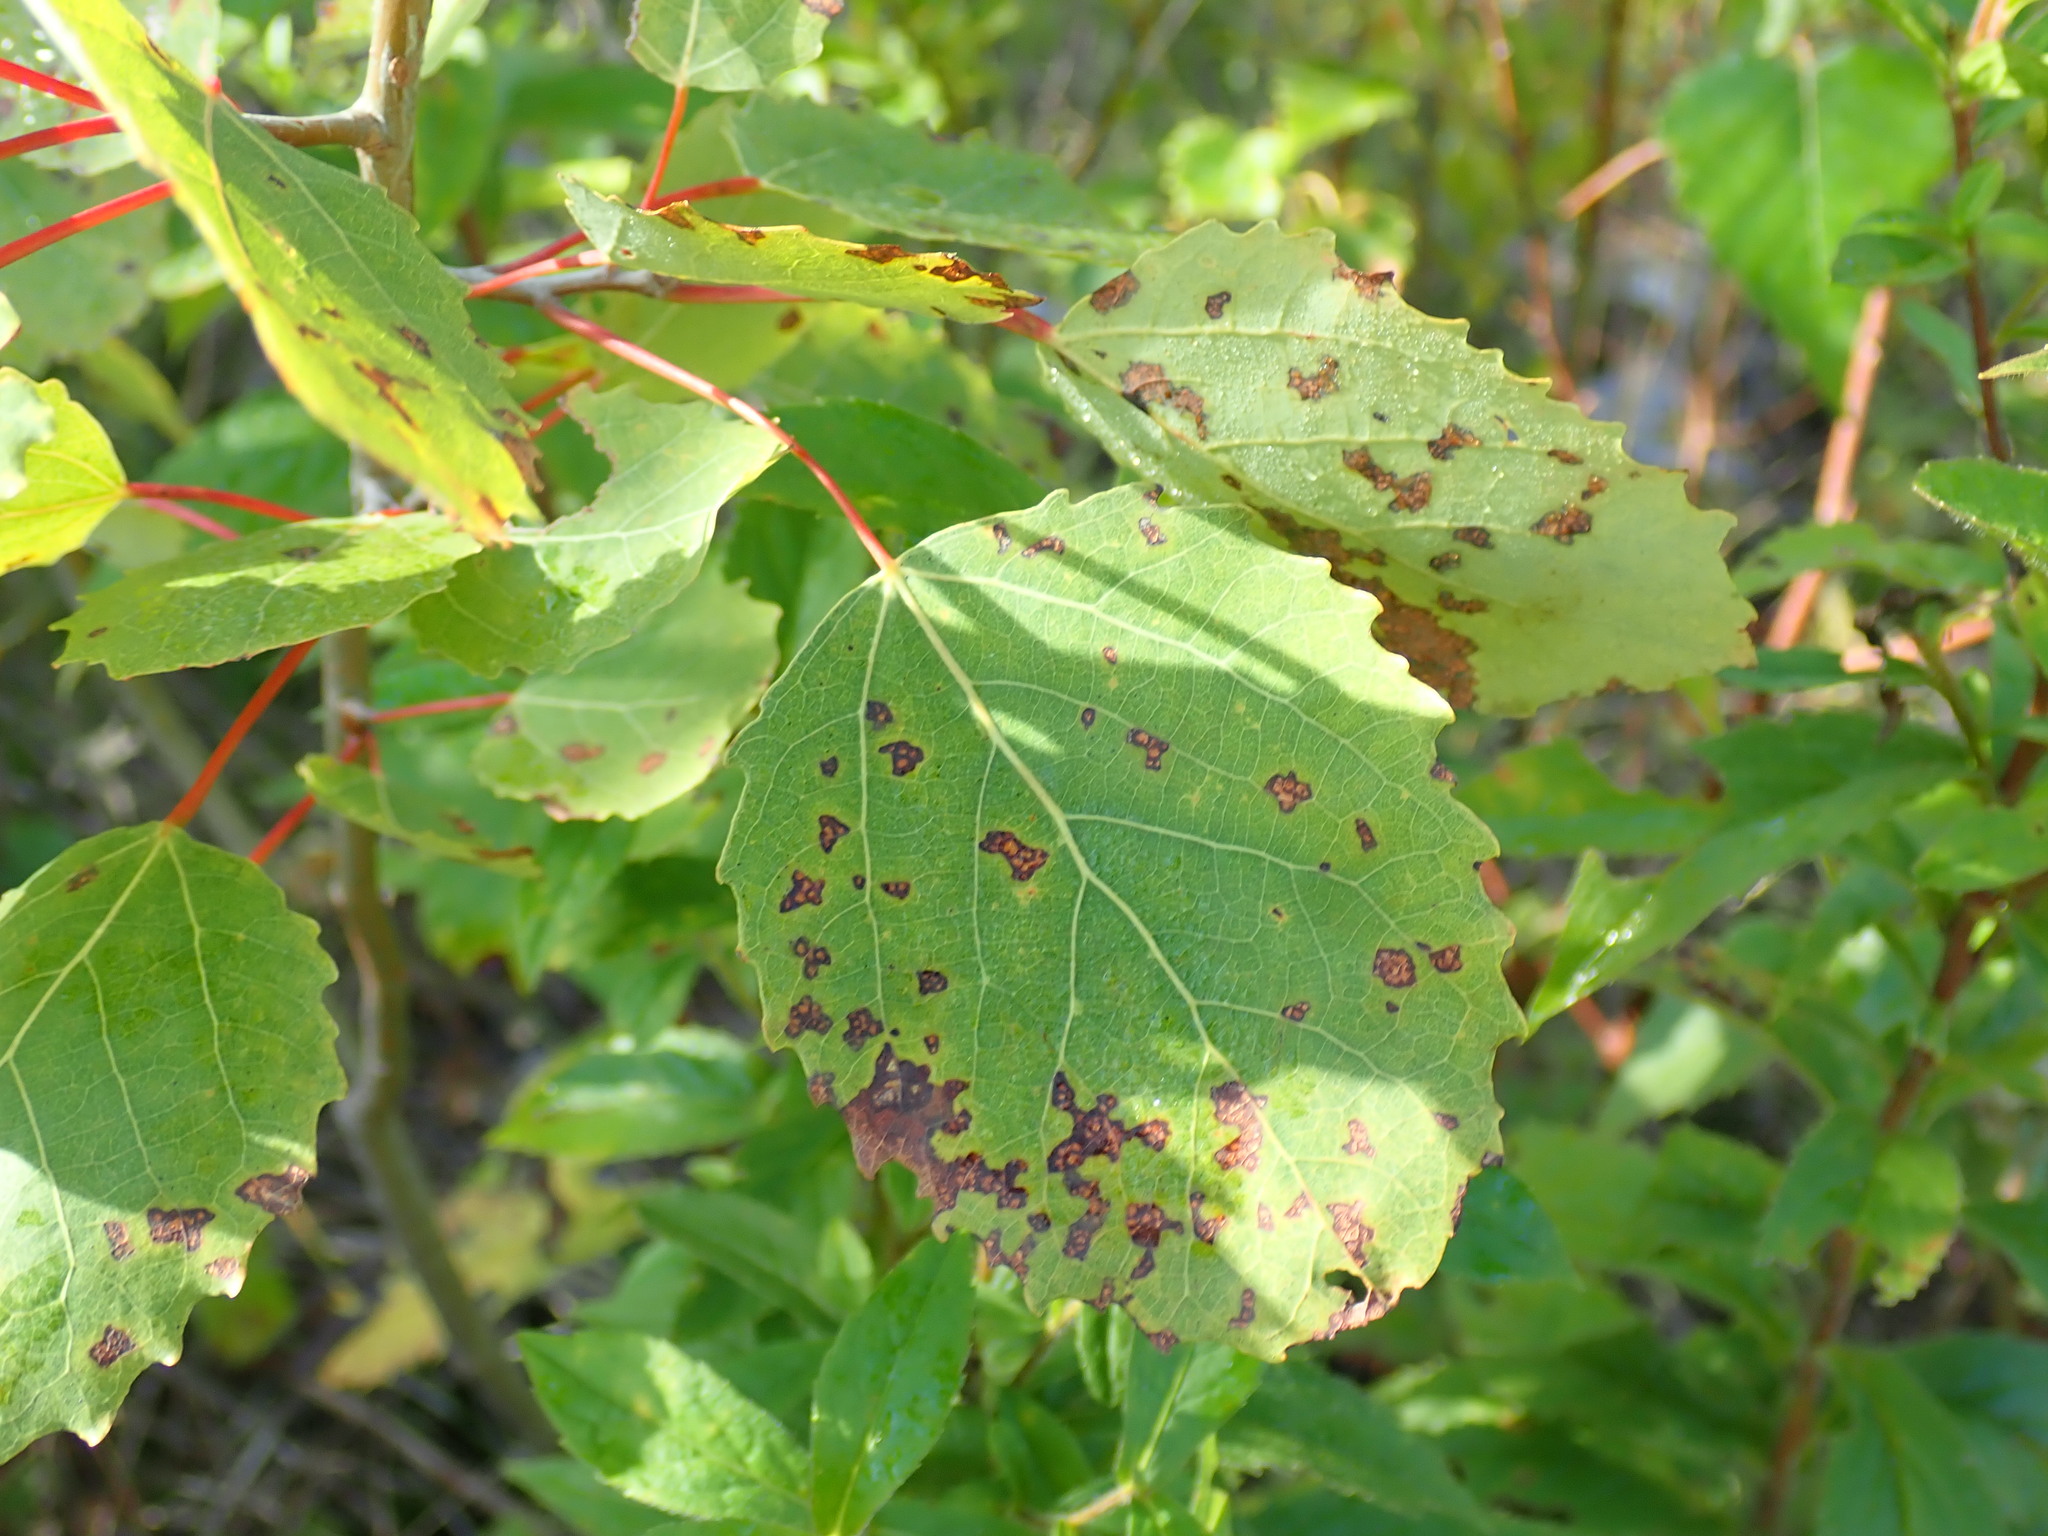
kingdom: Plantae
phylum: Tracheophyta
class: Magnoliopsida
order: Malpighiales
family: Salicaceae
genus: Populus
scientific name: Populus grandidentata
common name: Bigtooth aspen
